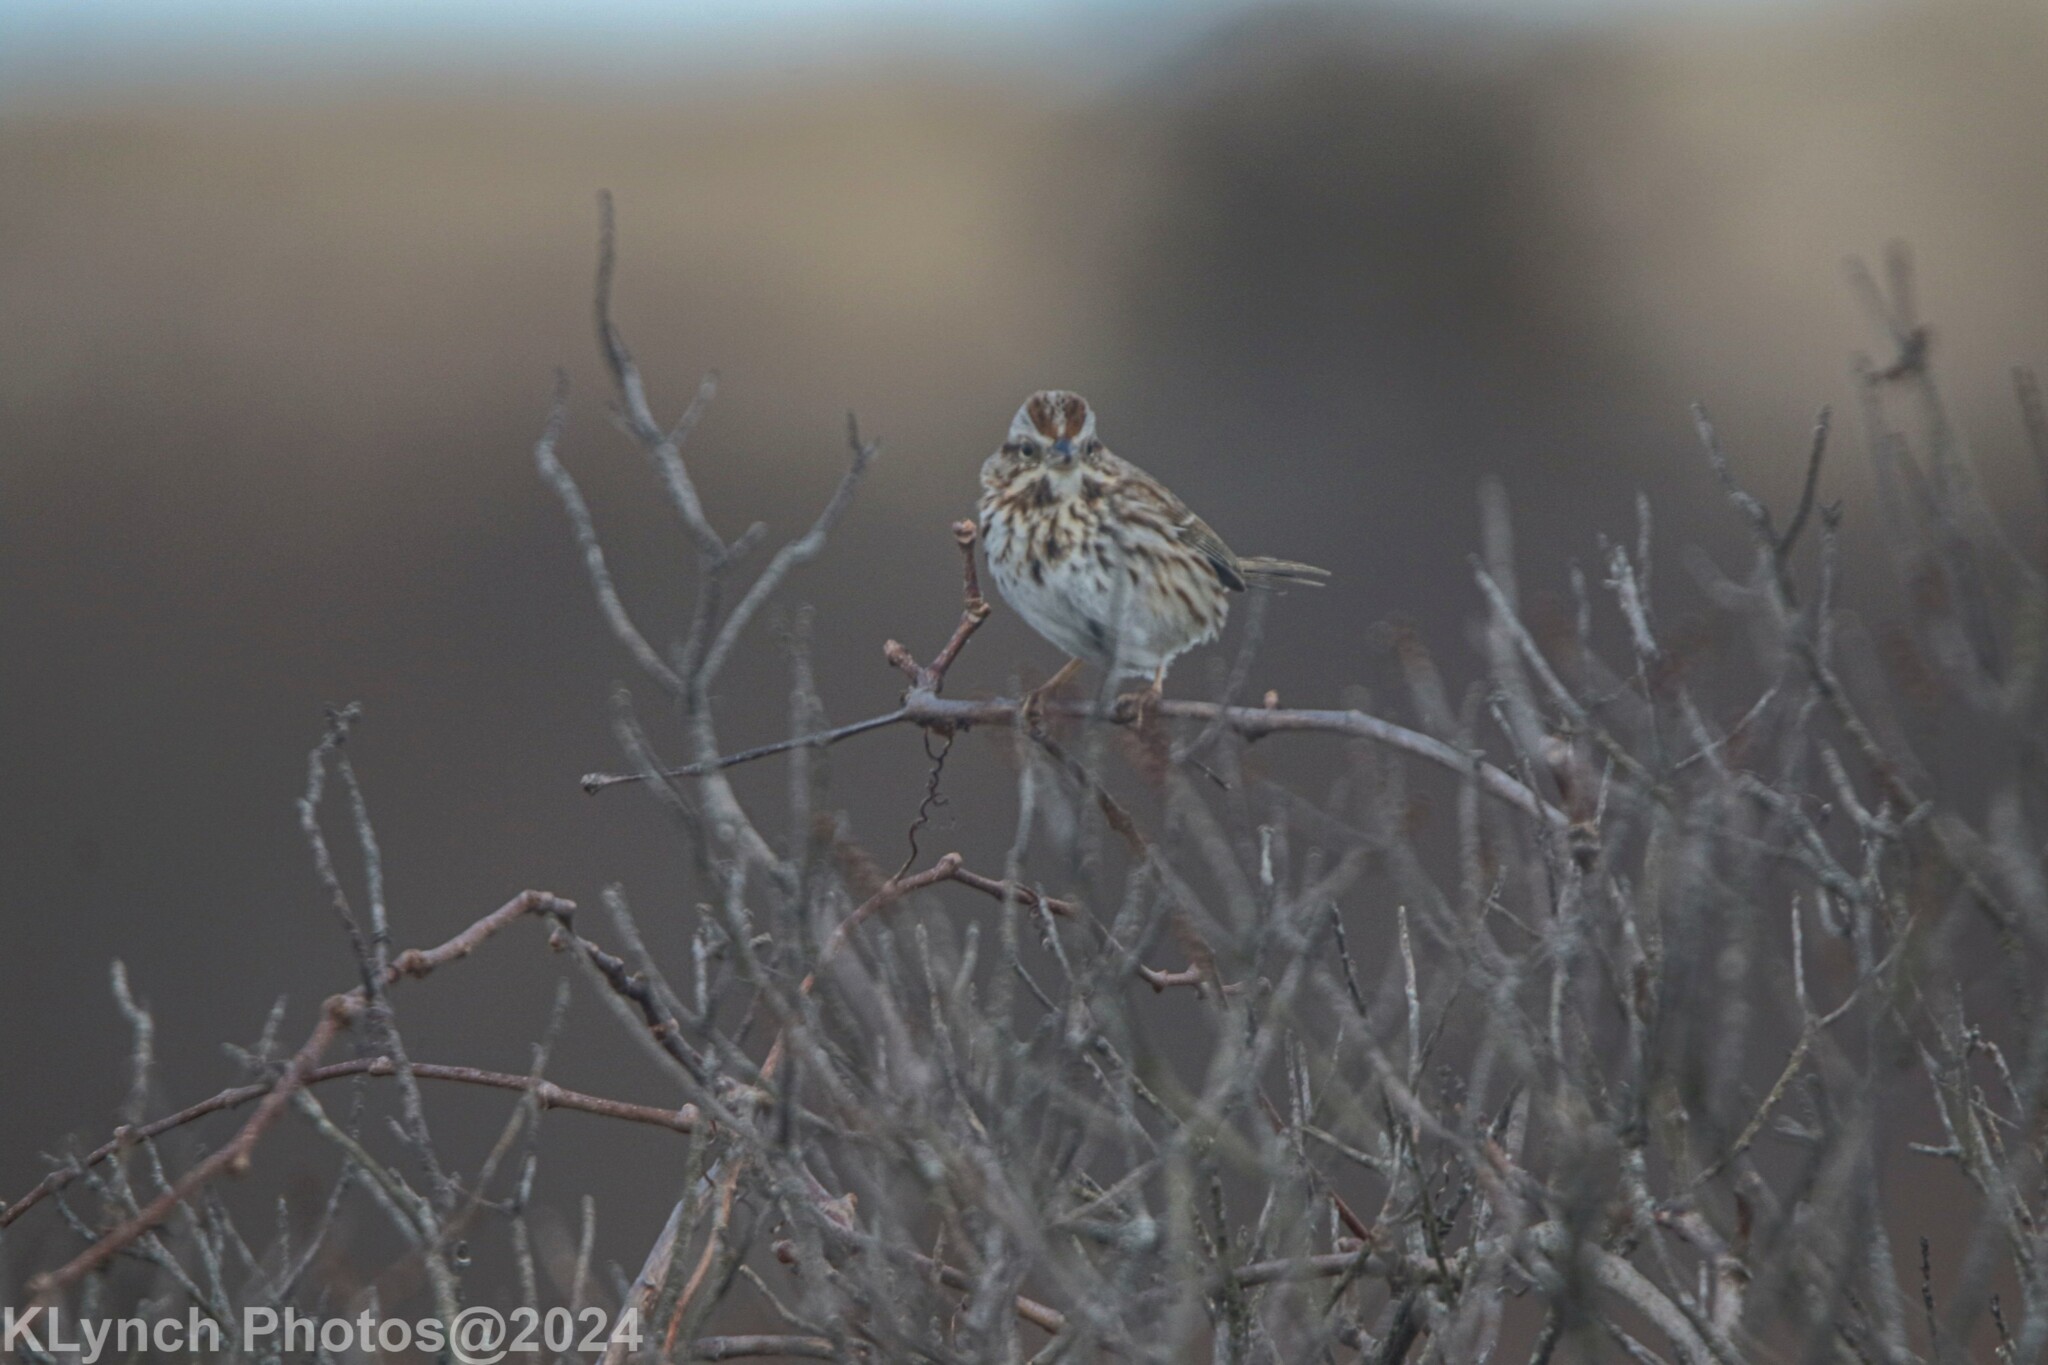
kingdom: Animalia
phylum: Chordata
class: Aves
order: Passeriformes
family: Passerellidae
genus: Melospiza
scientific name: Melospiza melodia
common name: Song sparrow
